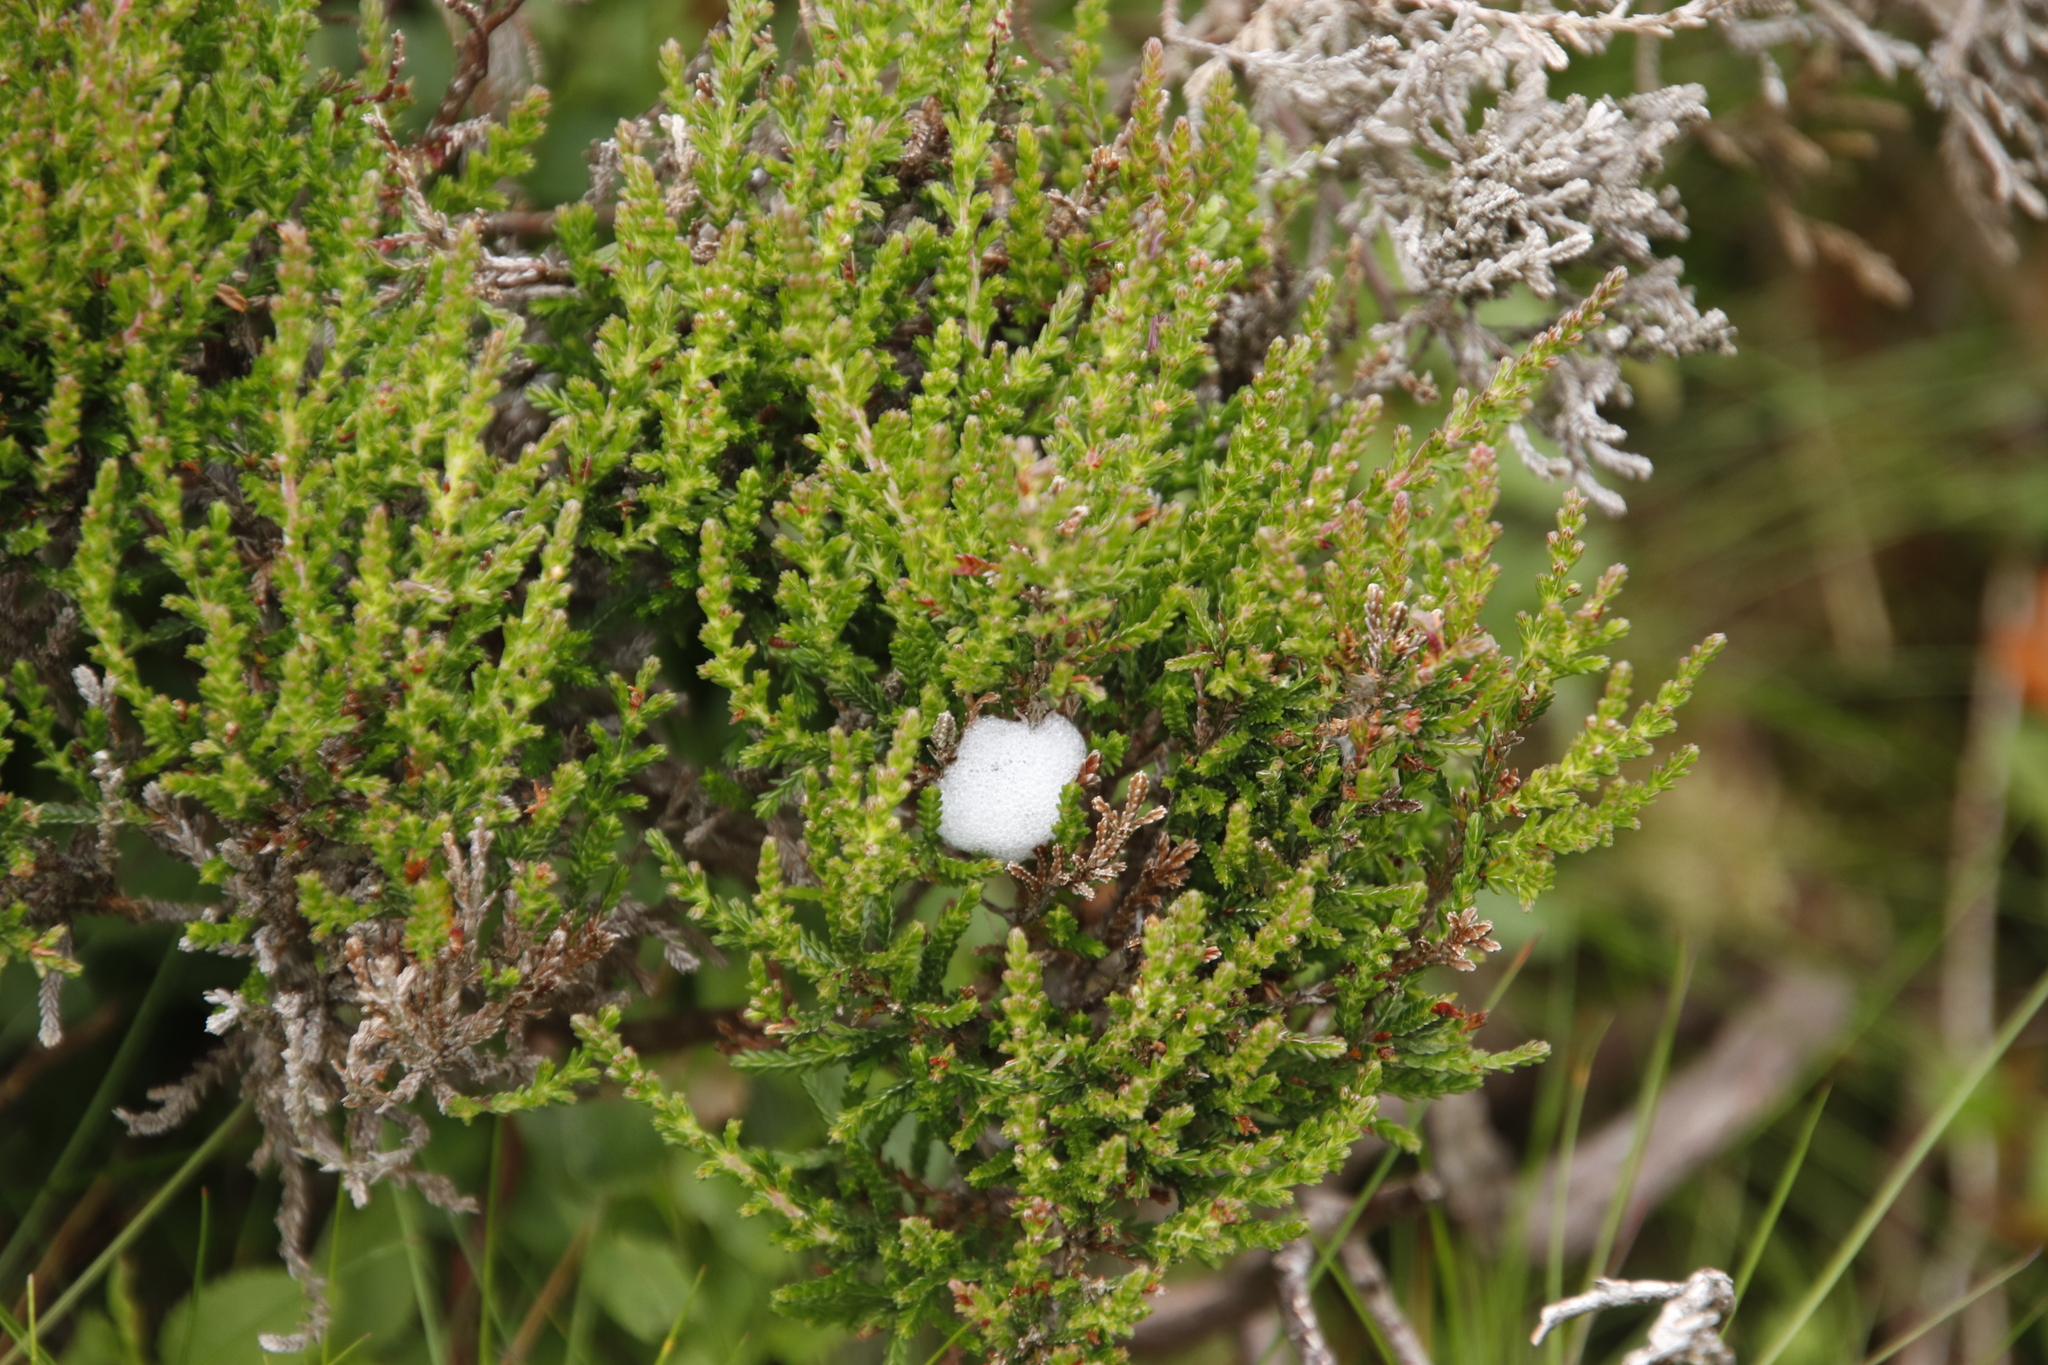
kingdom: Plantae
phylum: Tracheophyta
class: Magnoliopsida
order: Ericales
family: Ericaceae
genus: Calluna
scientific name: Calluna vulgaris
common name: Heather
